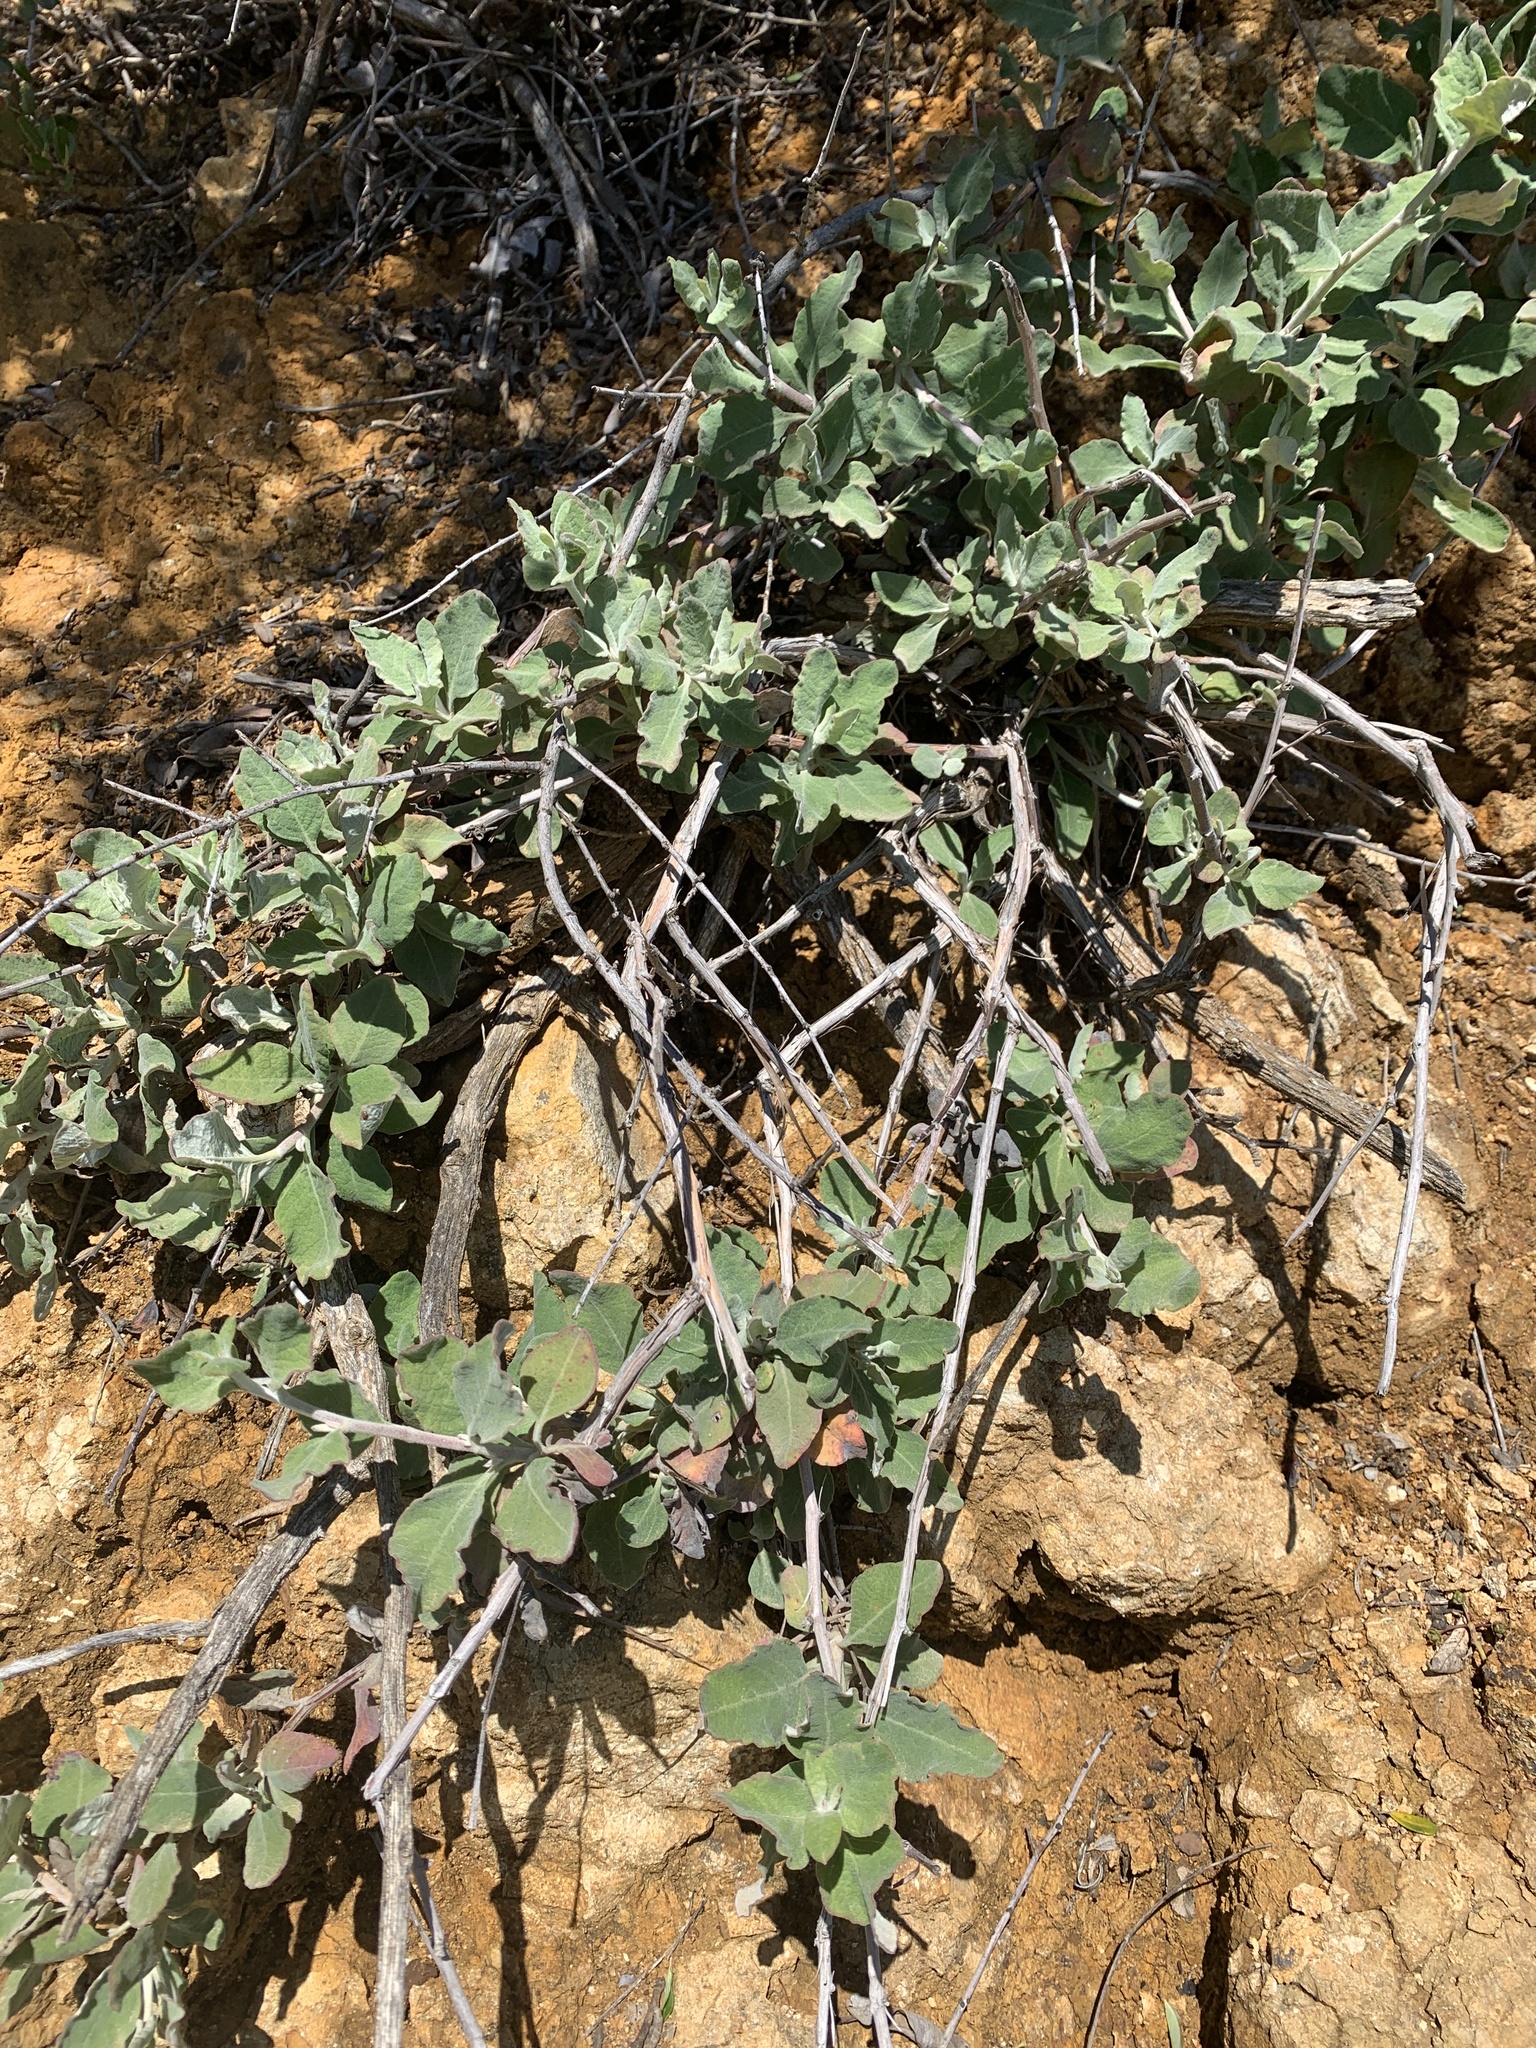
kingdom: Plantae
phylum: Tracheophyta
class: Magnoliopsida
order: Caryophyllales
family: Polygonaceae
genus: Eriogonum
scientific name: Eriogonum cinereum
